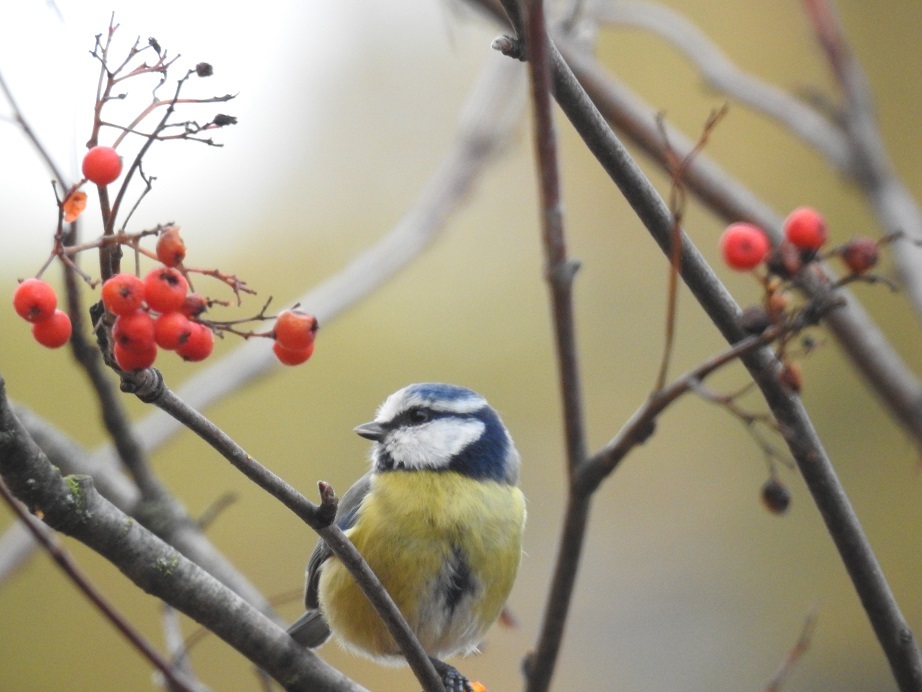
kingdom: Animalia
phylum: Chordata
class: Aves
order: Passeriformes
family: Paridae
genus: Cyanistes
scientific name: Cyanistes caeruleus
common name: Eurasian blue tit
